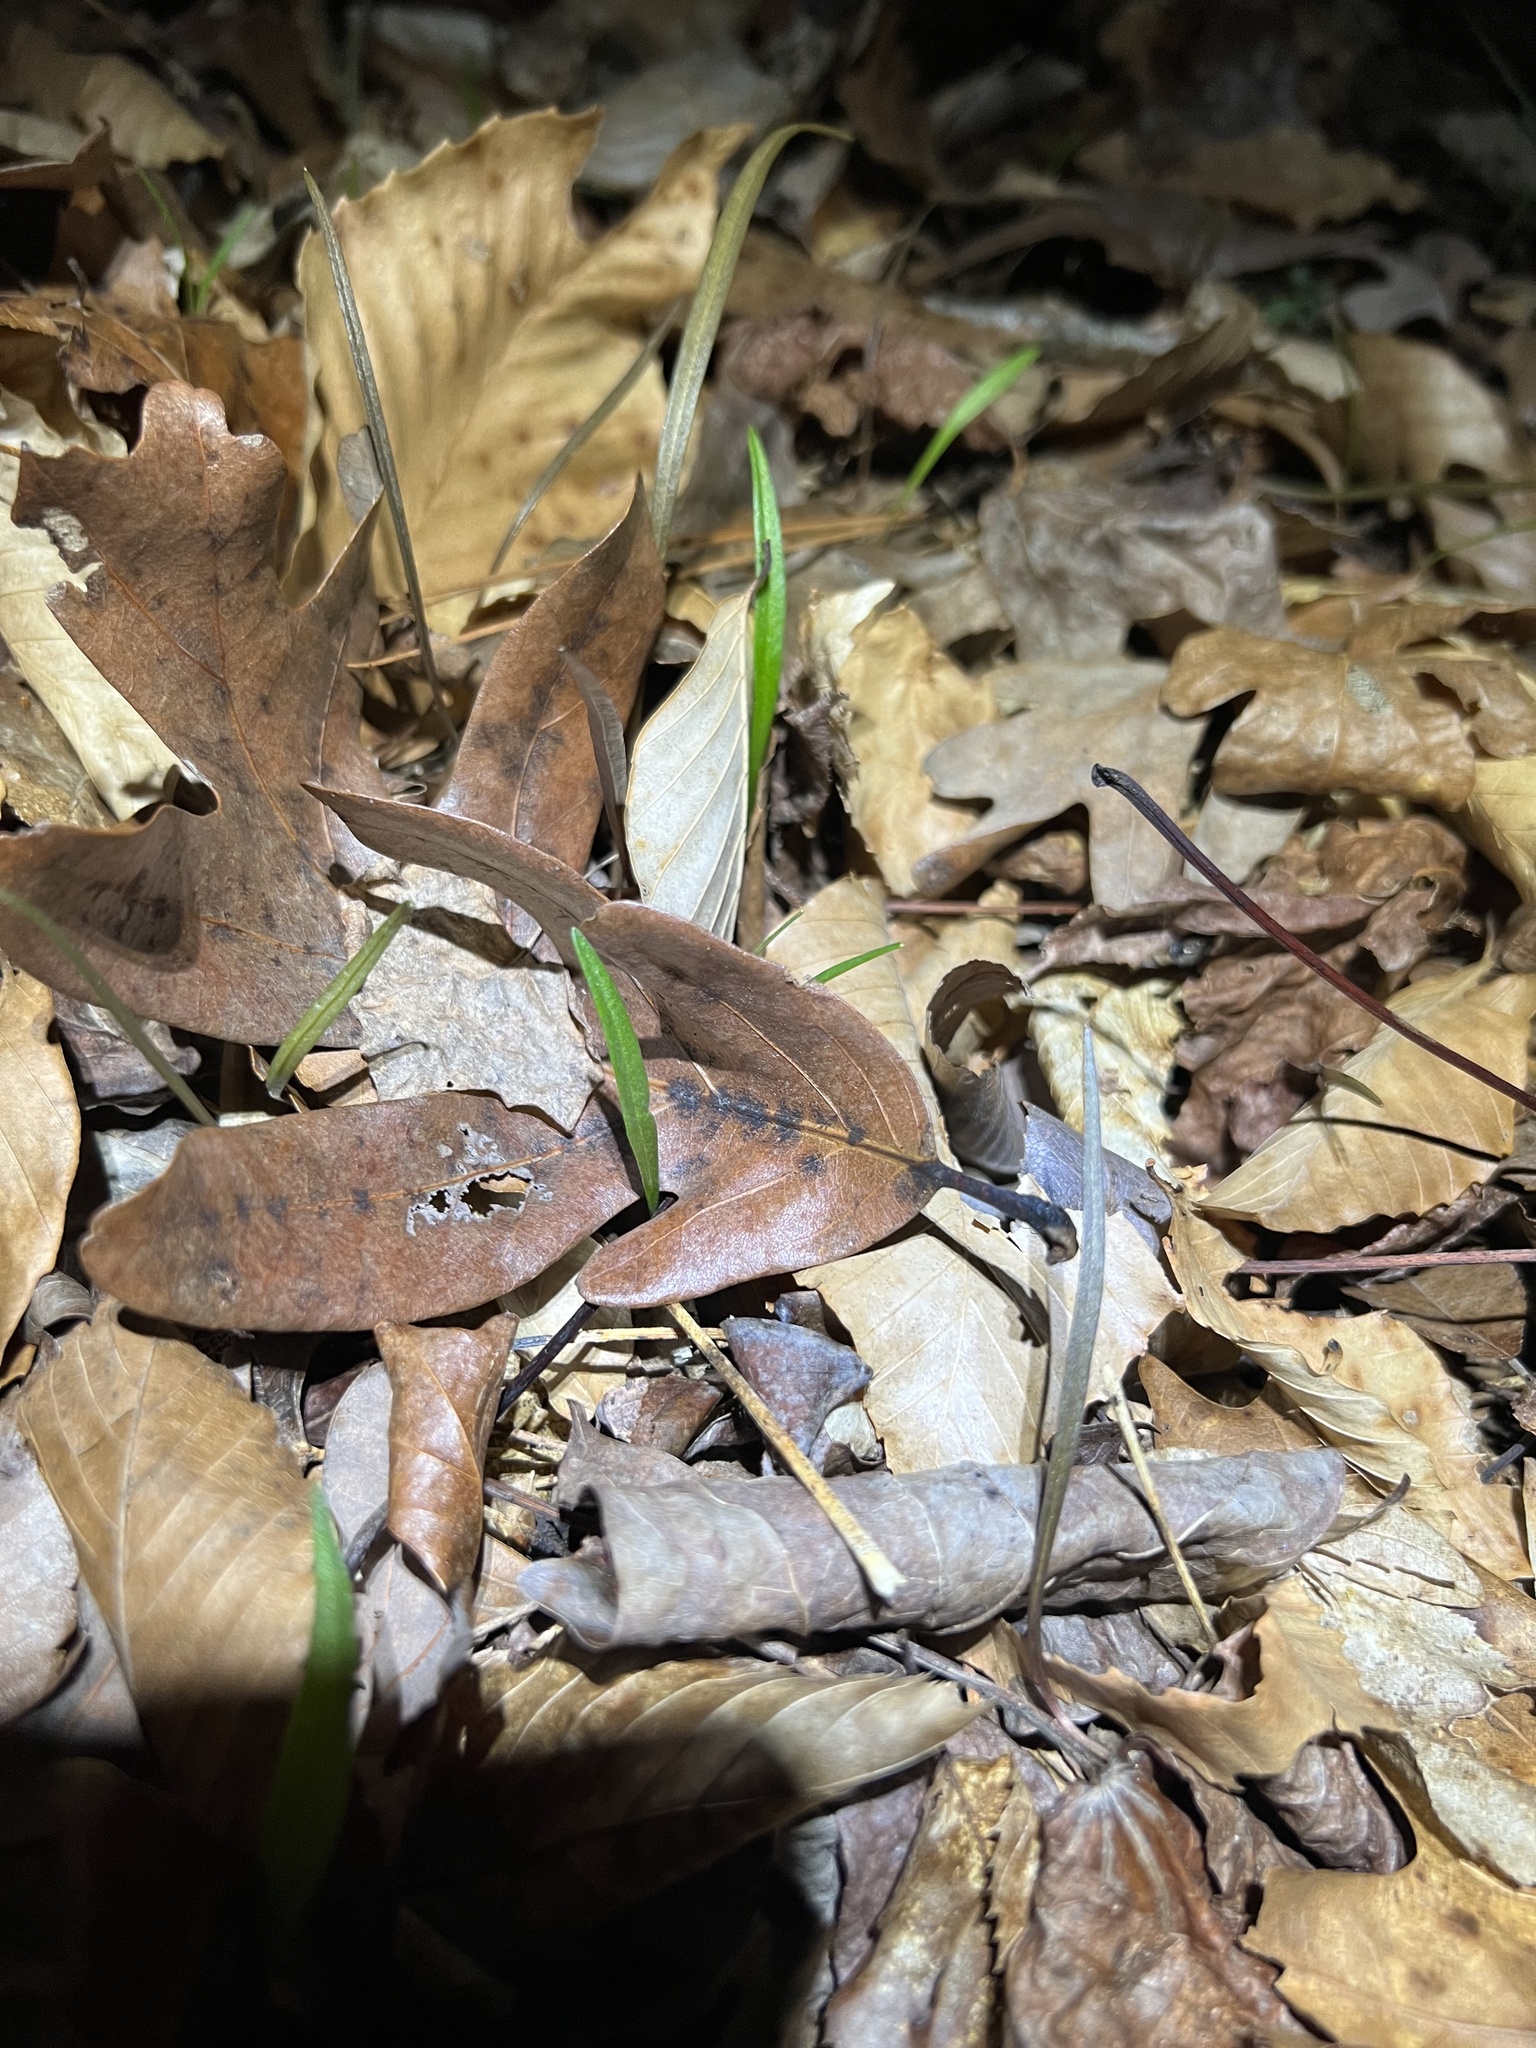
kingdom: Plantae
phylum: Tracheophyta
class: Magnoliopsida
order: Caryophyllales
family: Montiaceae
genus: Claytonia
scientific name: Claytonia virginica
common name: Virginia springbeauty
